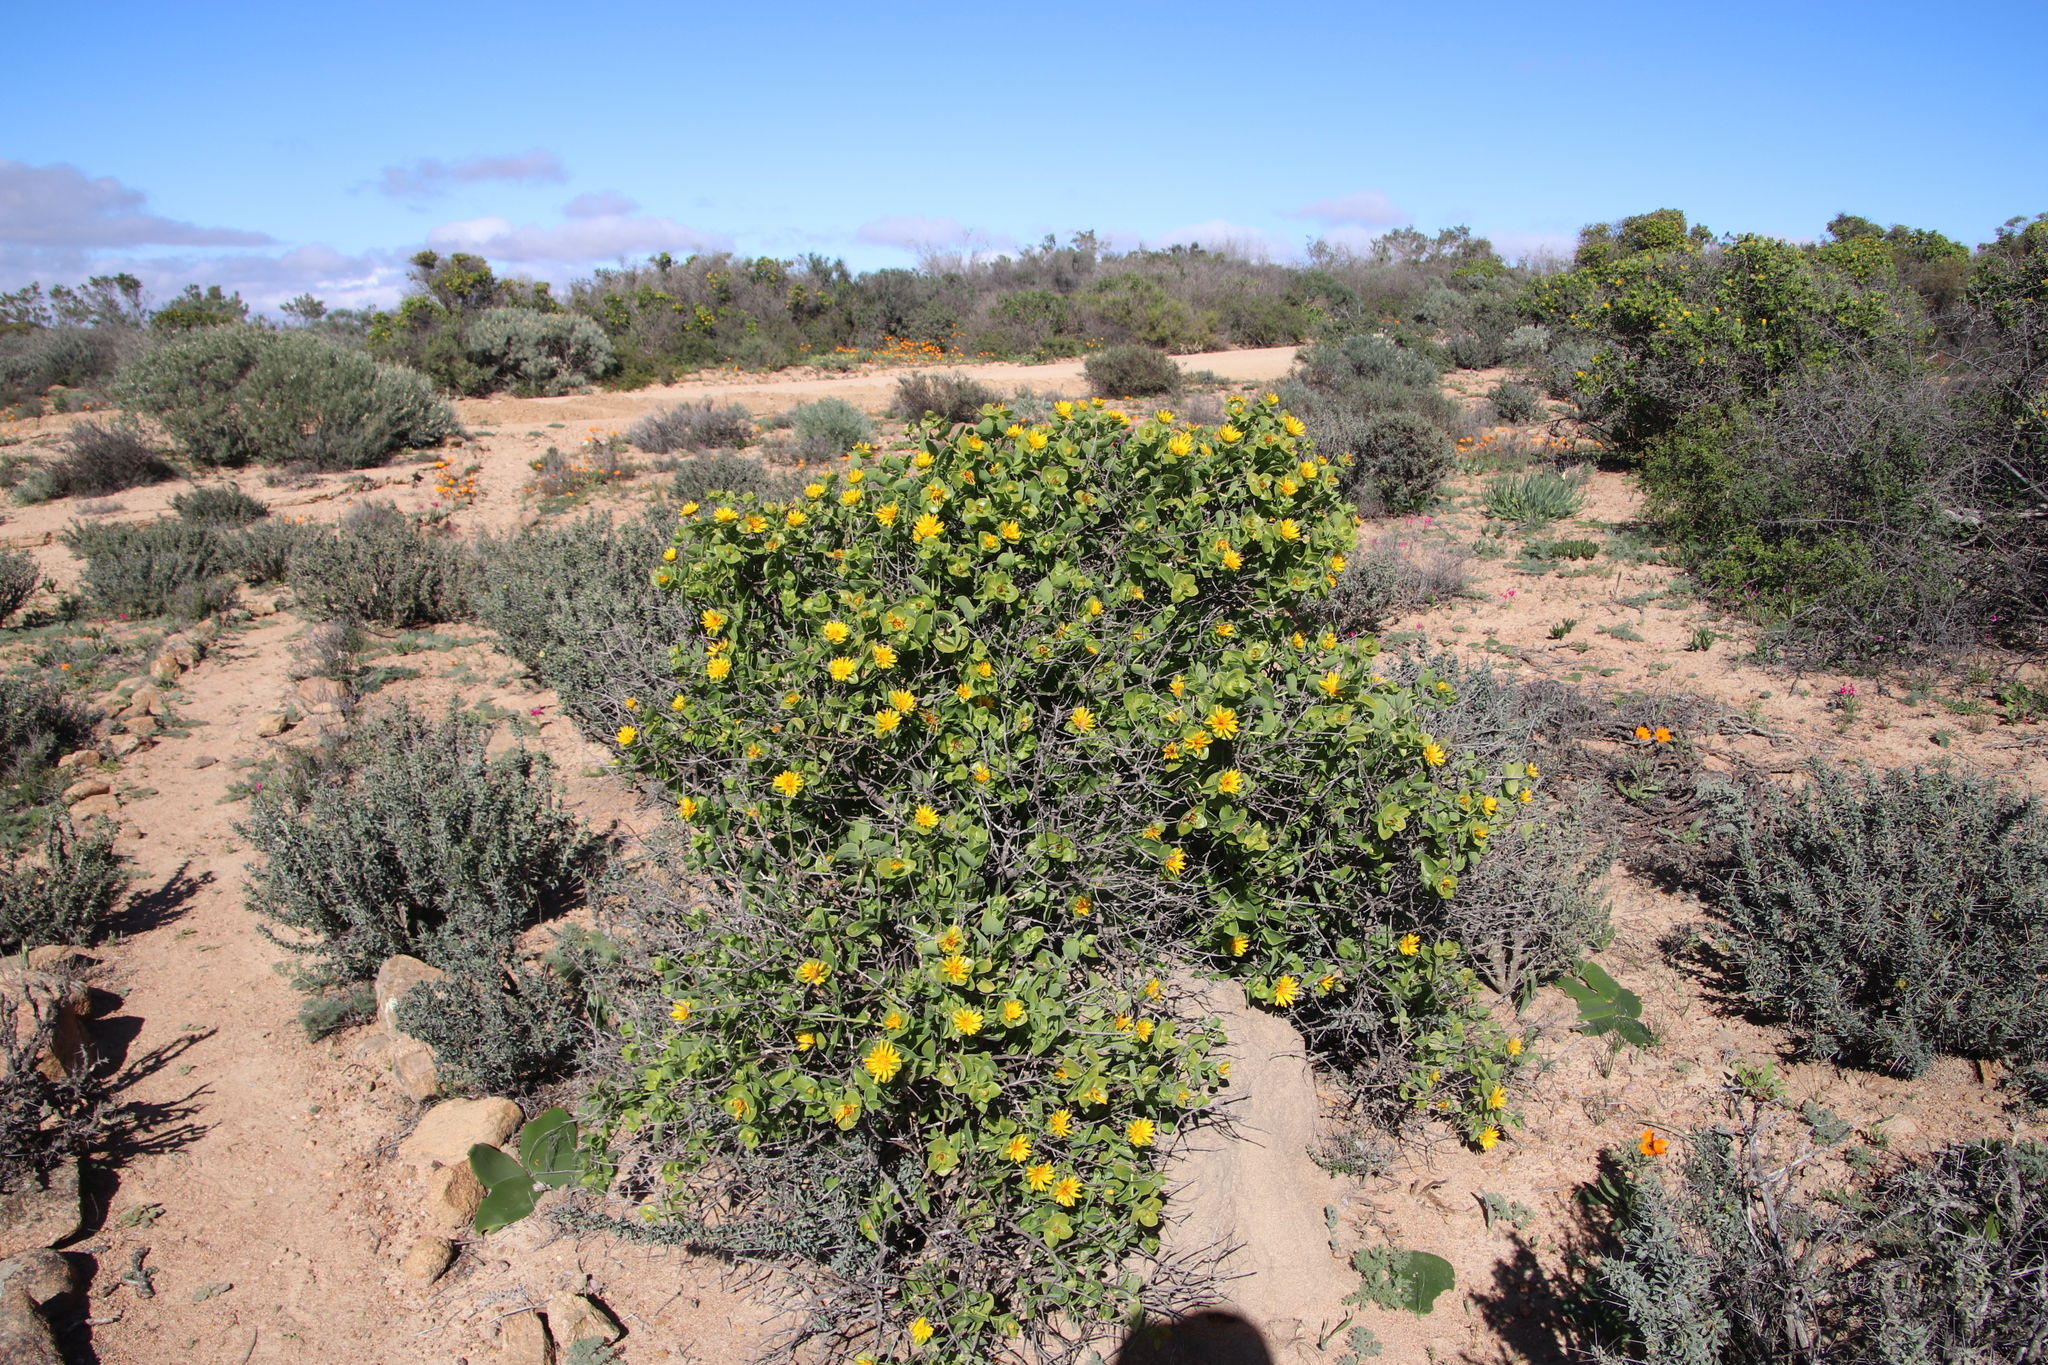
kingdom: Plantae
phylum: Tracheophyta
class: Magnoliopsida
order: Asterales
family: Asteraceae
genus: Didelta
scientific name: Didelta spinosa
